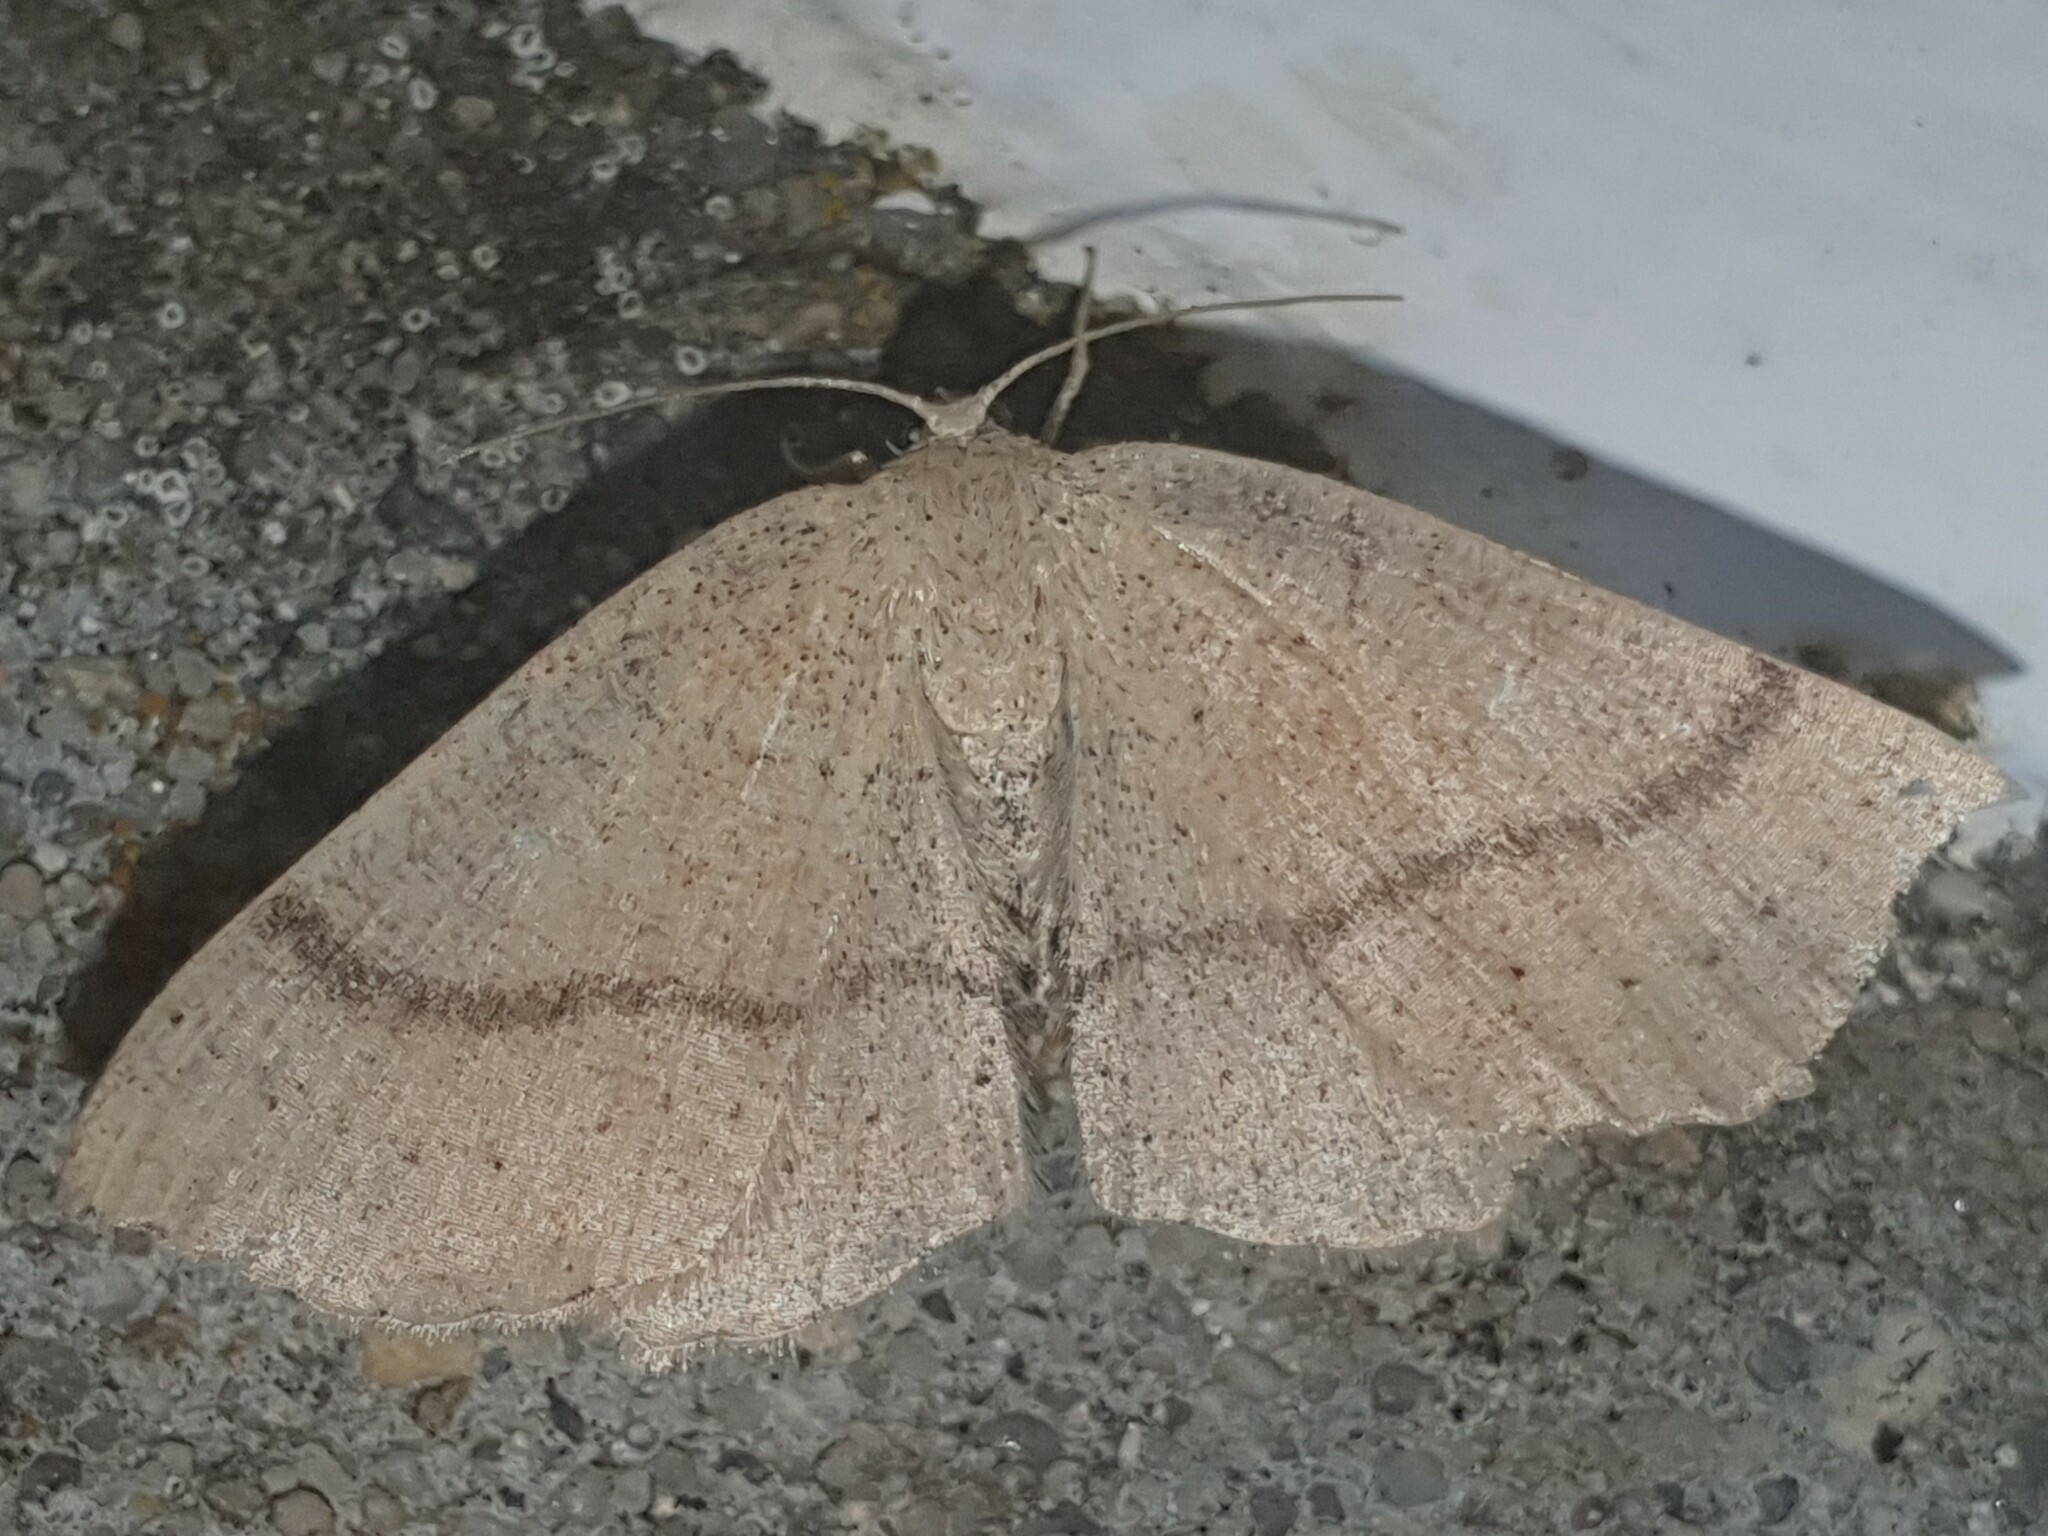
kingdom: Animalia
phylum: Arthropoda
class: Insecta
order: Lepidoptera
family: Geometridae
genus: Cyclophora
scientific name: Cyclophora punctaria
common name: Maiden's blush
